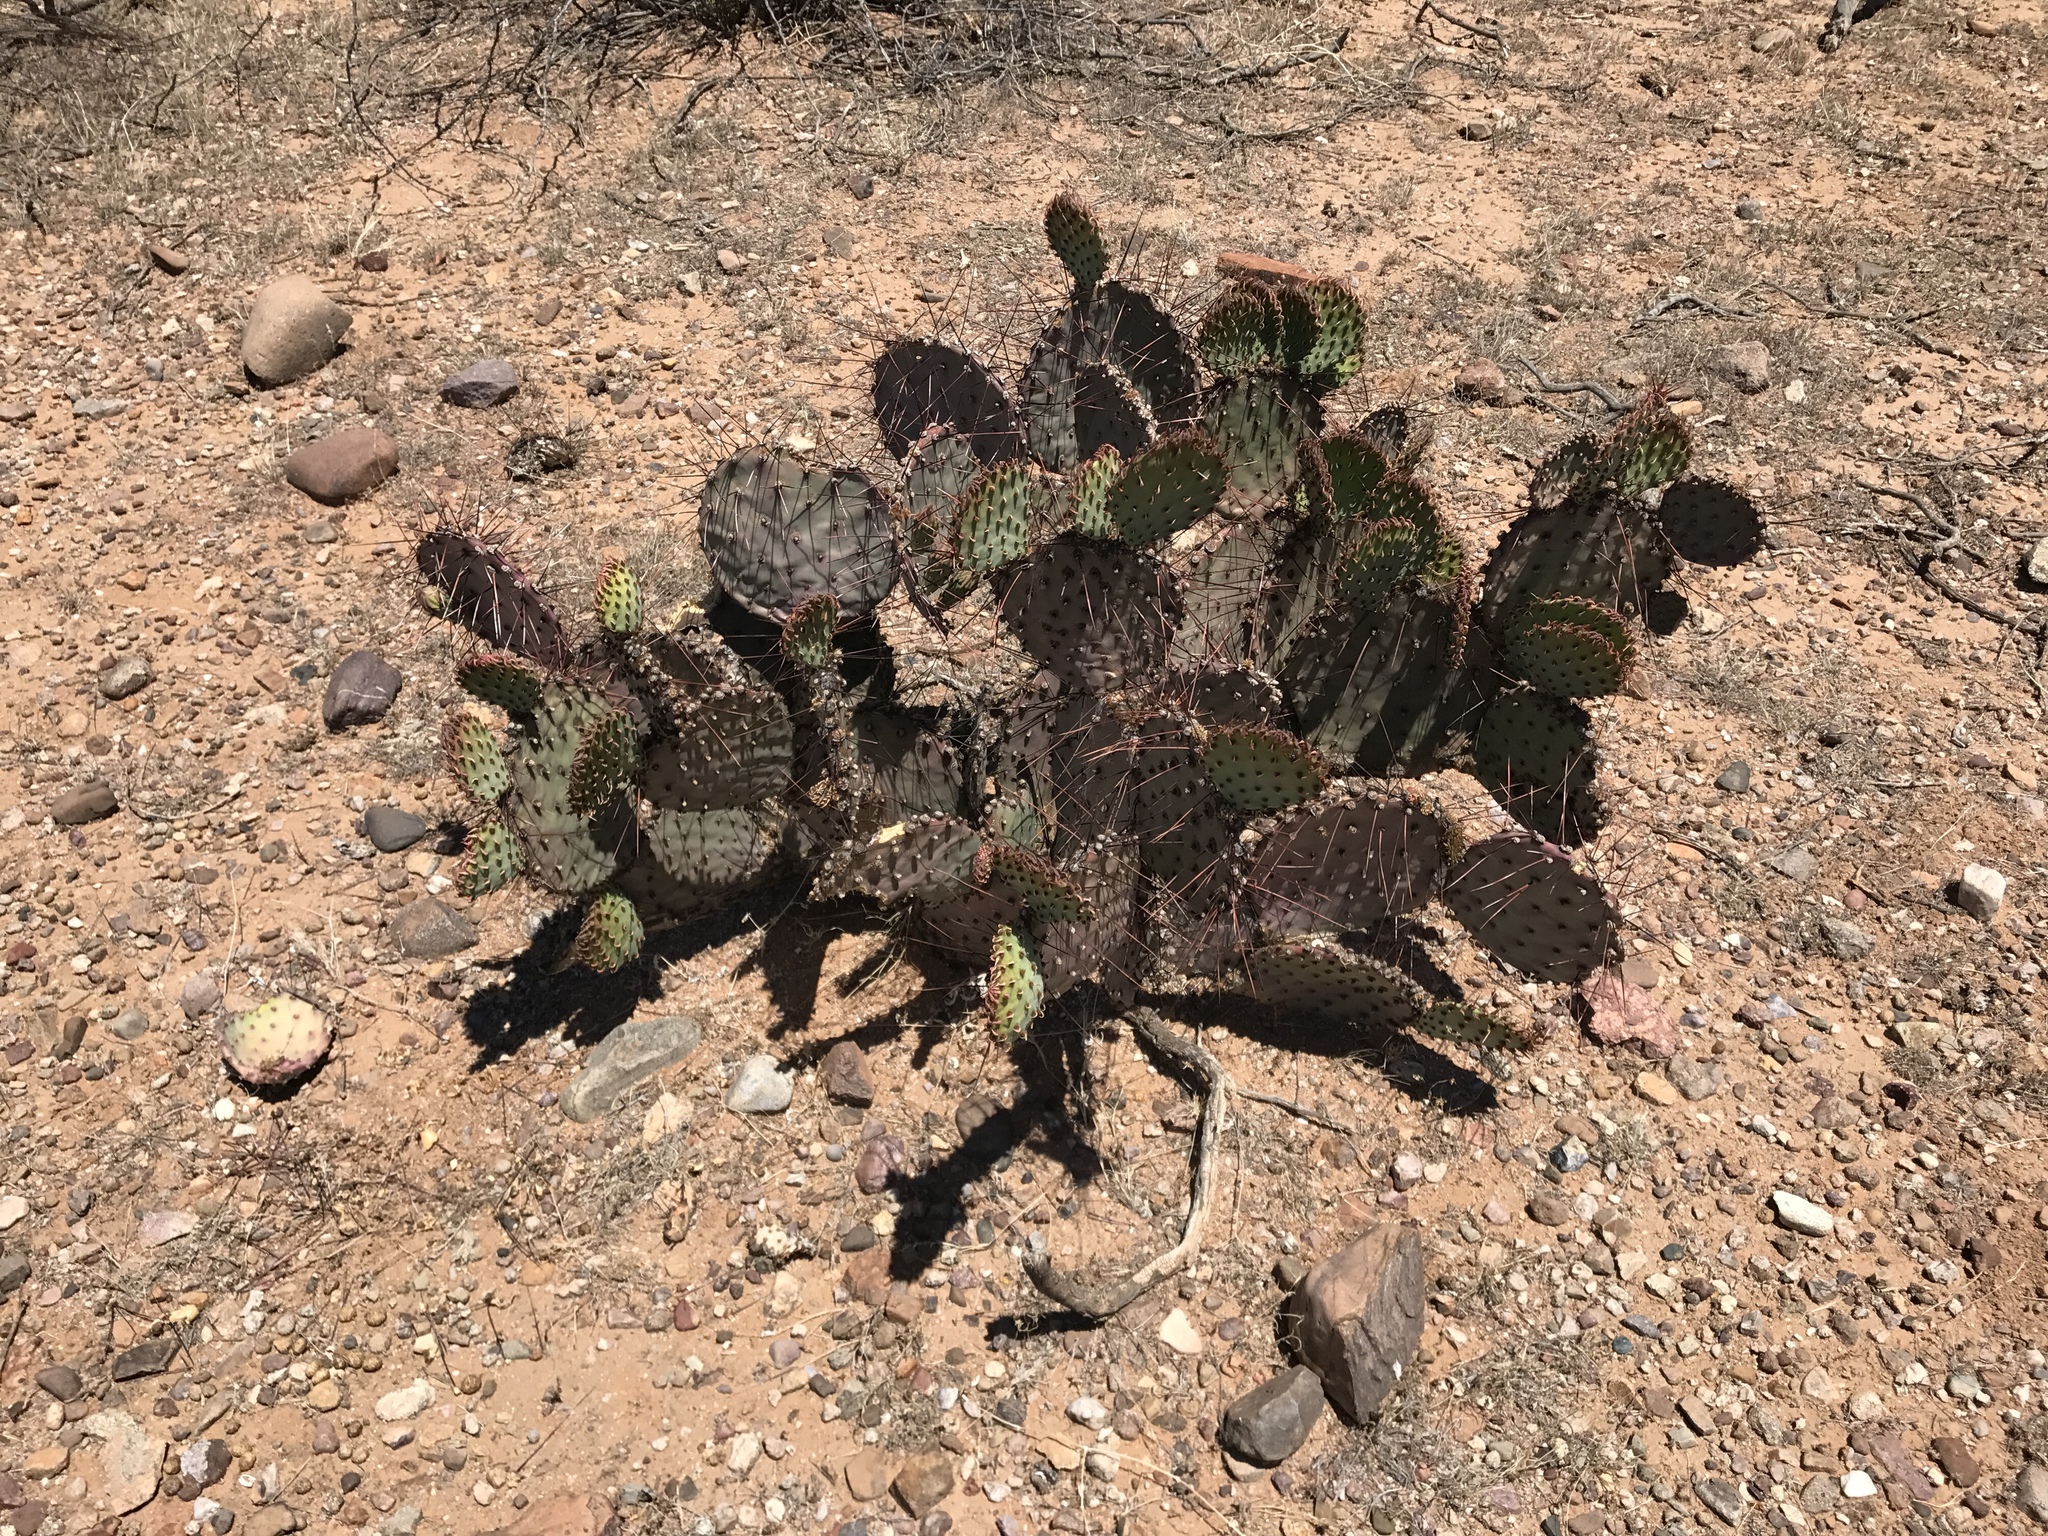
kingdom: Plantae
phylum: Tracheophyta
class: Magnoliopsida
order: Caryophyllales
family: Cactaceae
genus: Opuntia
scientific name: Opuntia macrocentra
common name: Purple prickly-pear
